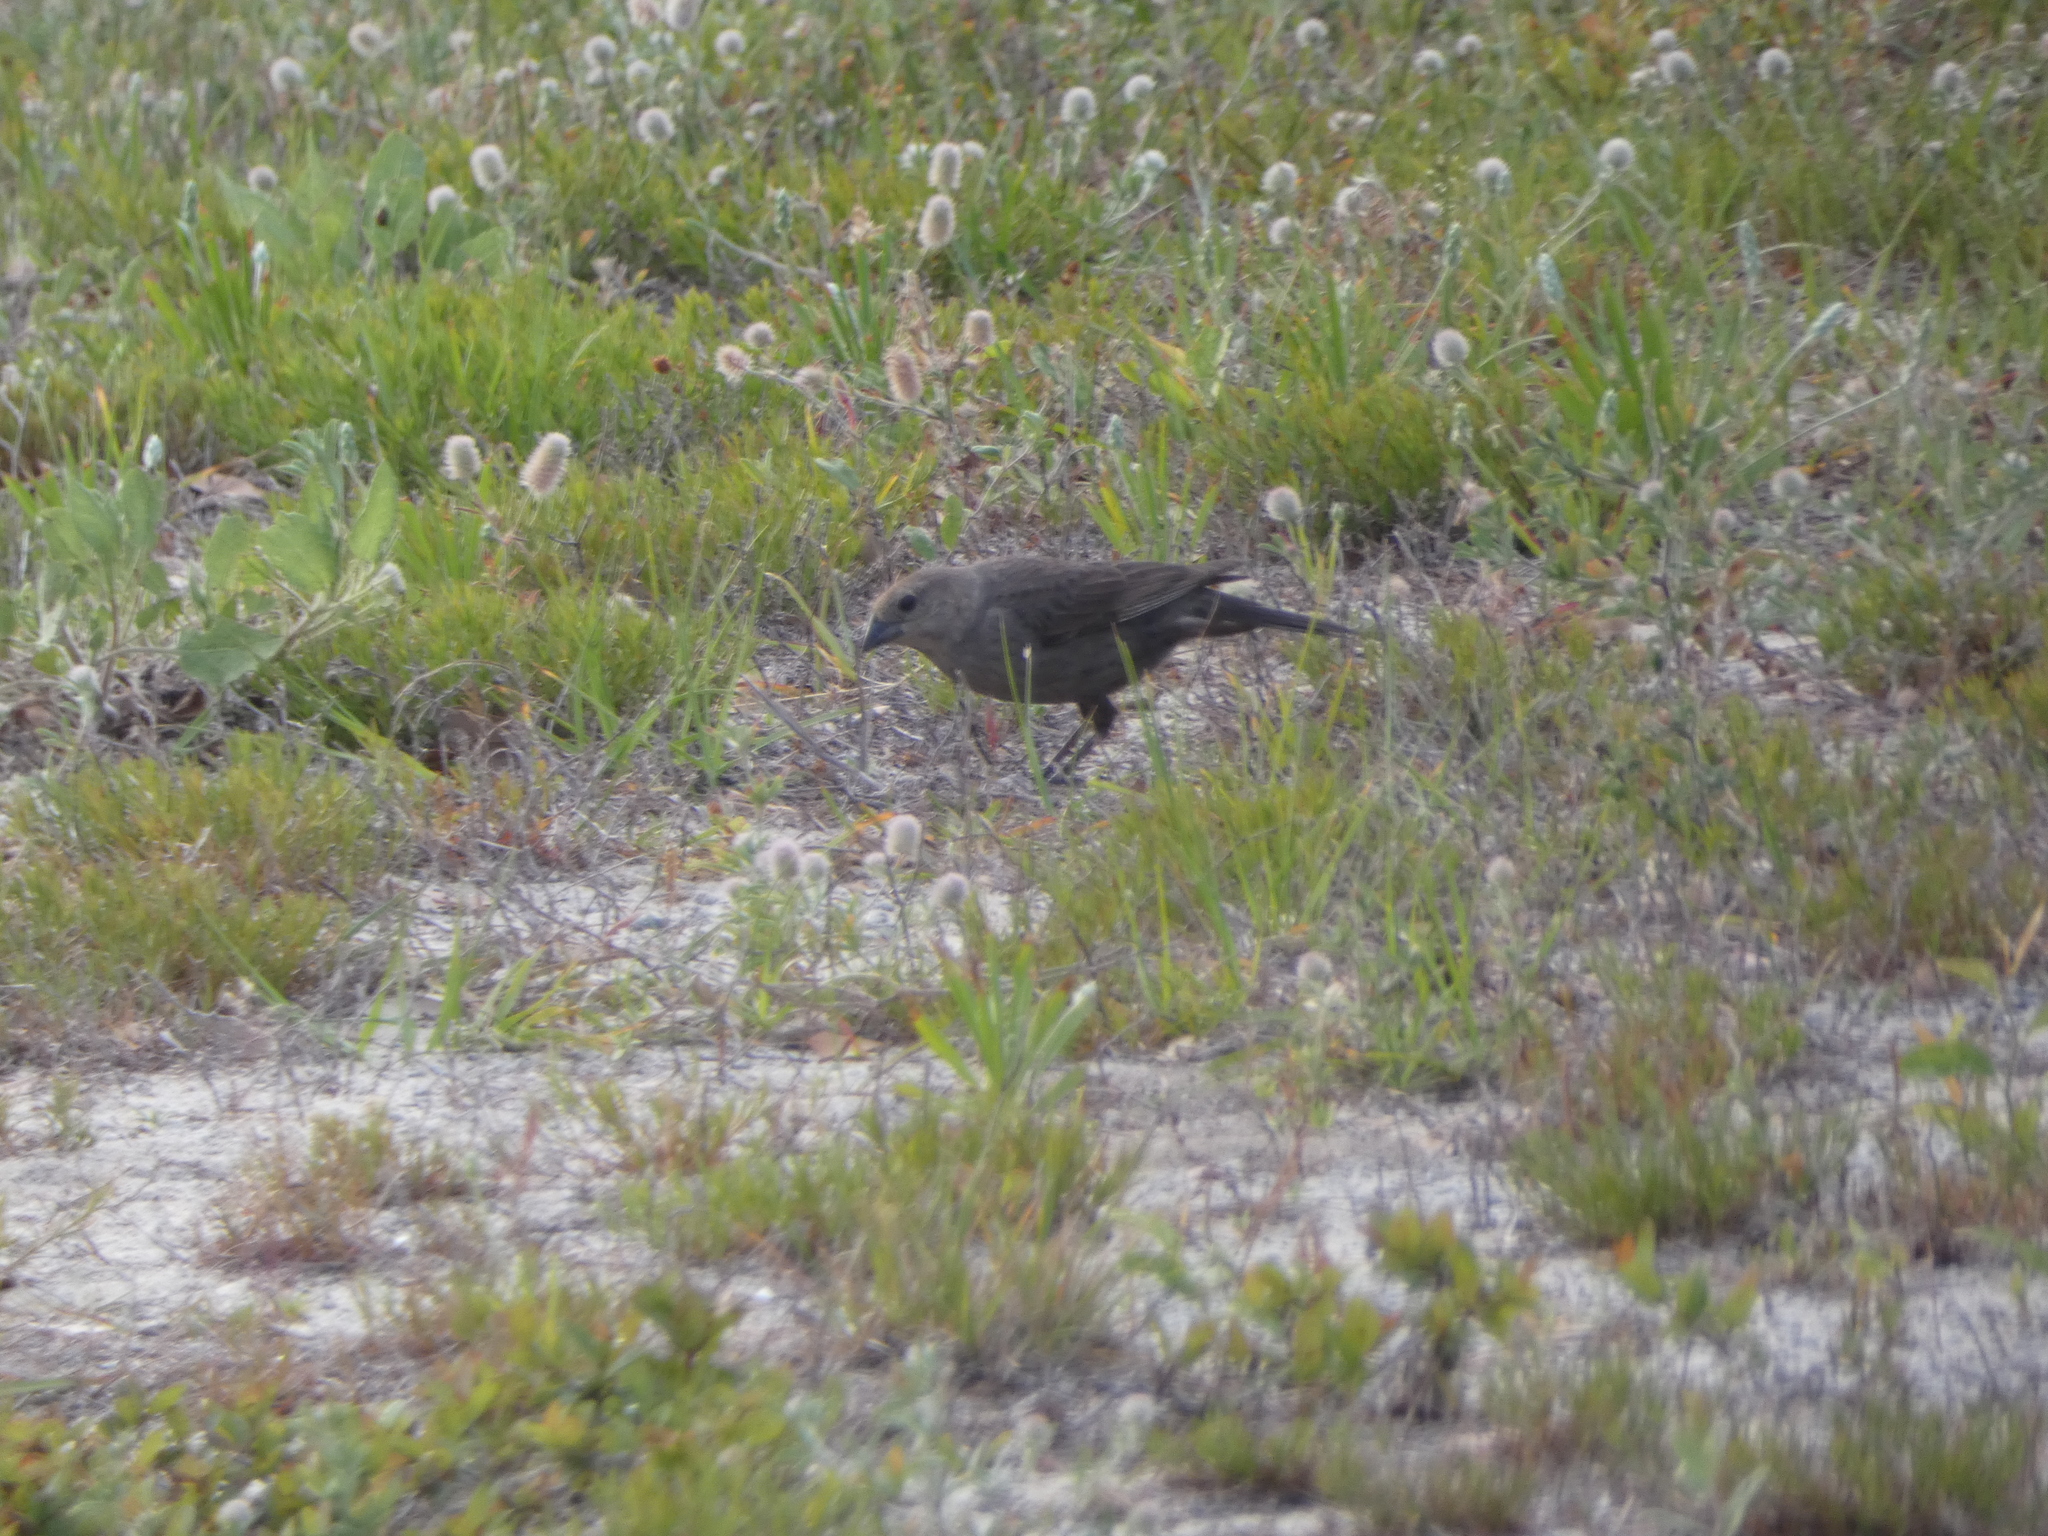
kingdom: Animalia
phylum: Chordata
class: Aves
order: Passeriformes
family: Icteridae
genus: Molothrus
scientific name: Molothrus ater
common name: Brown-headed cowbird
